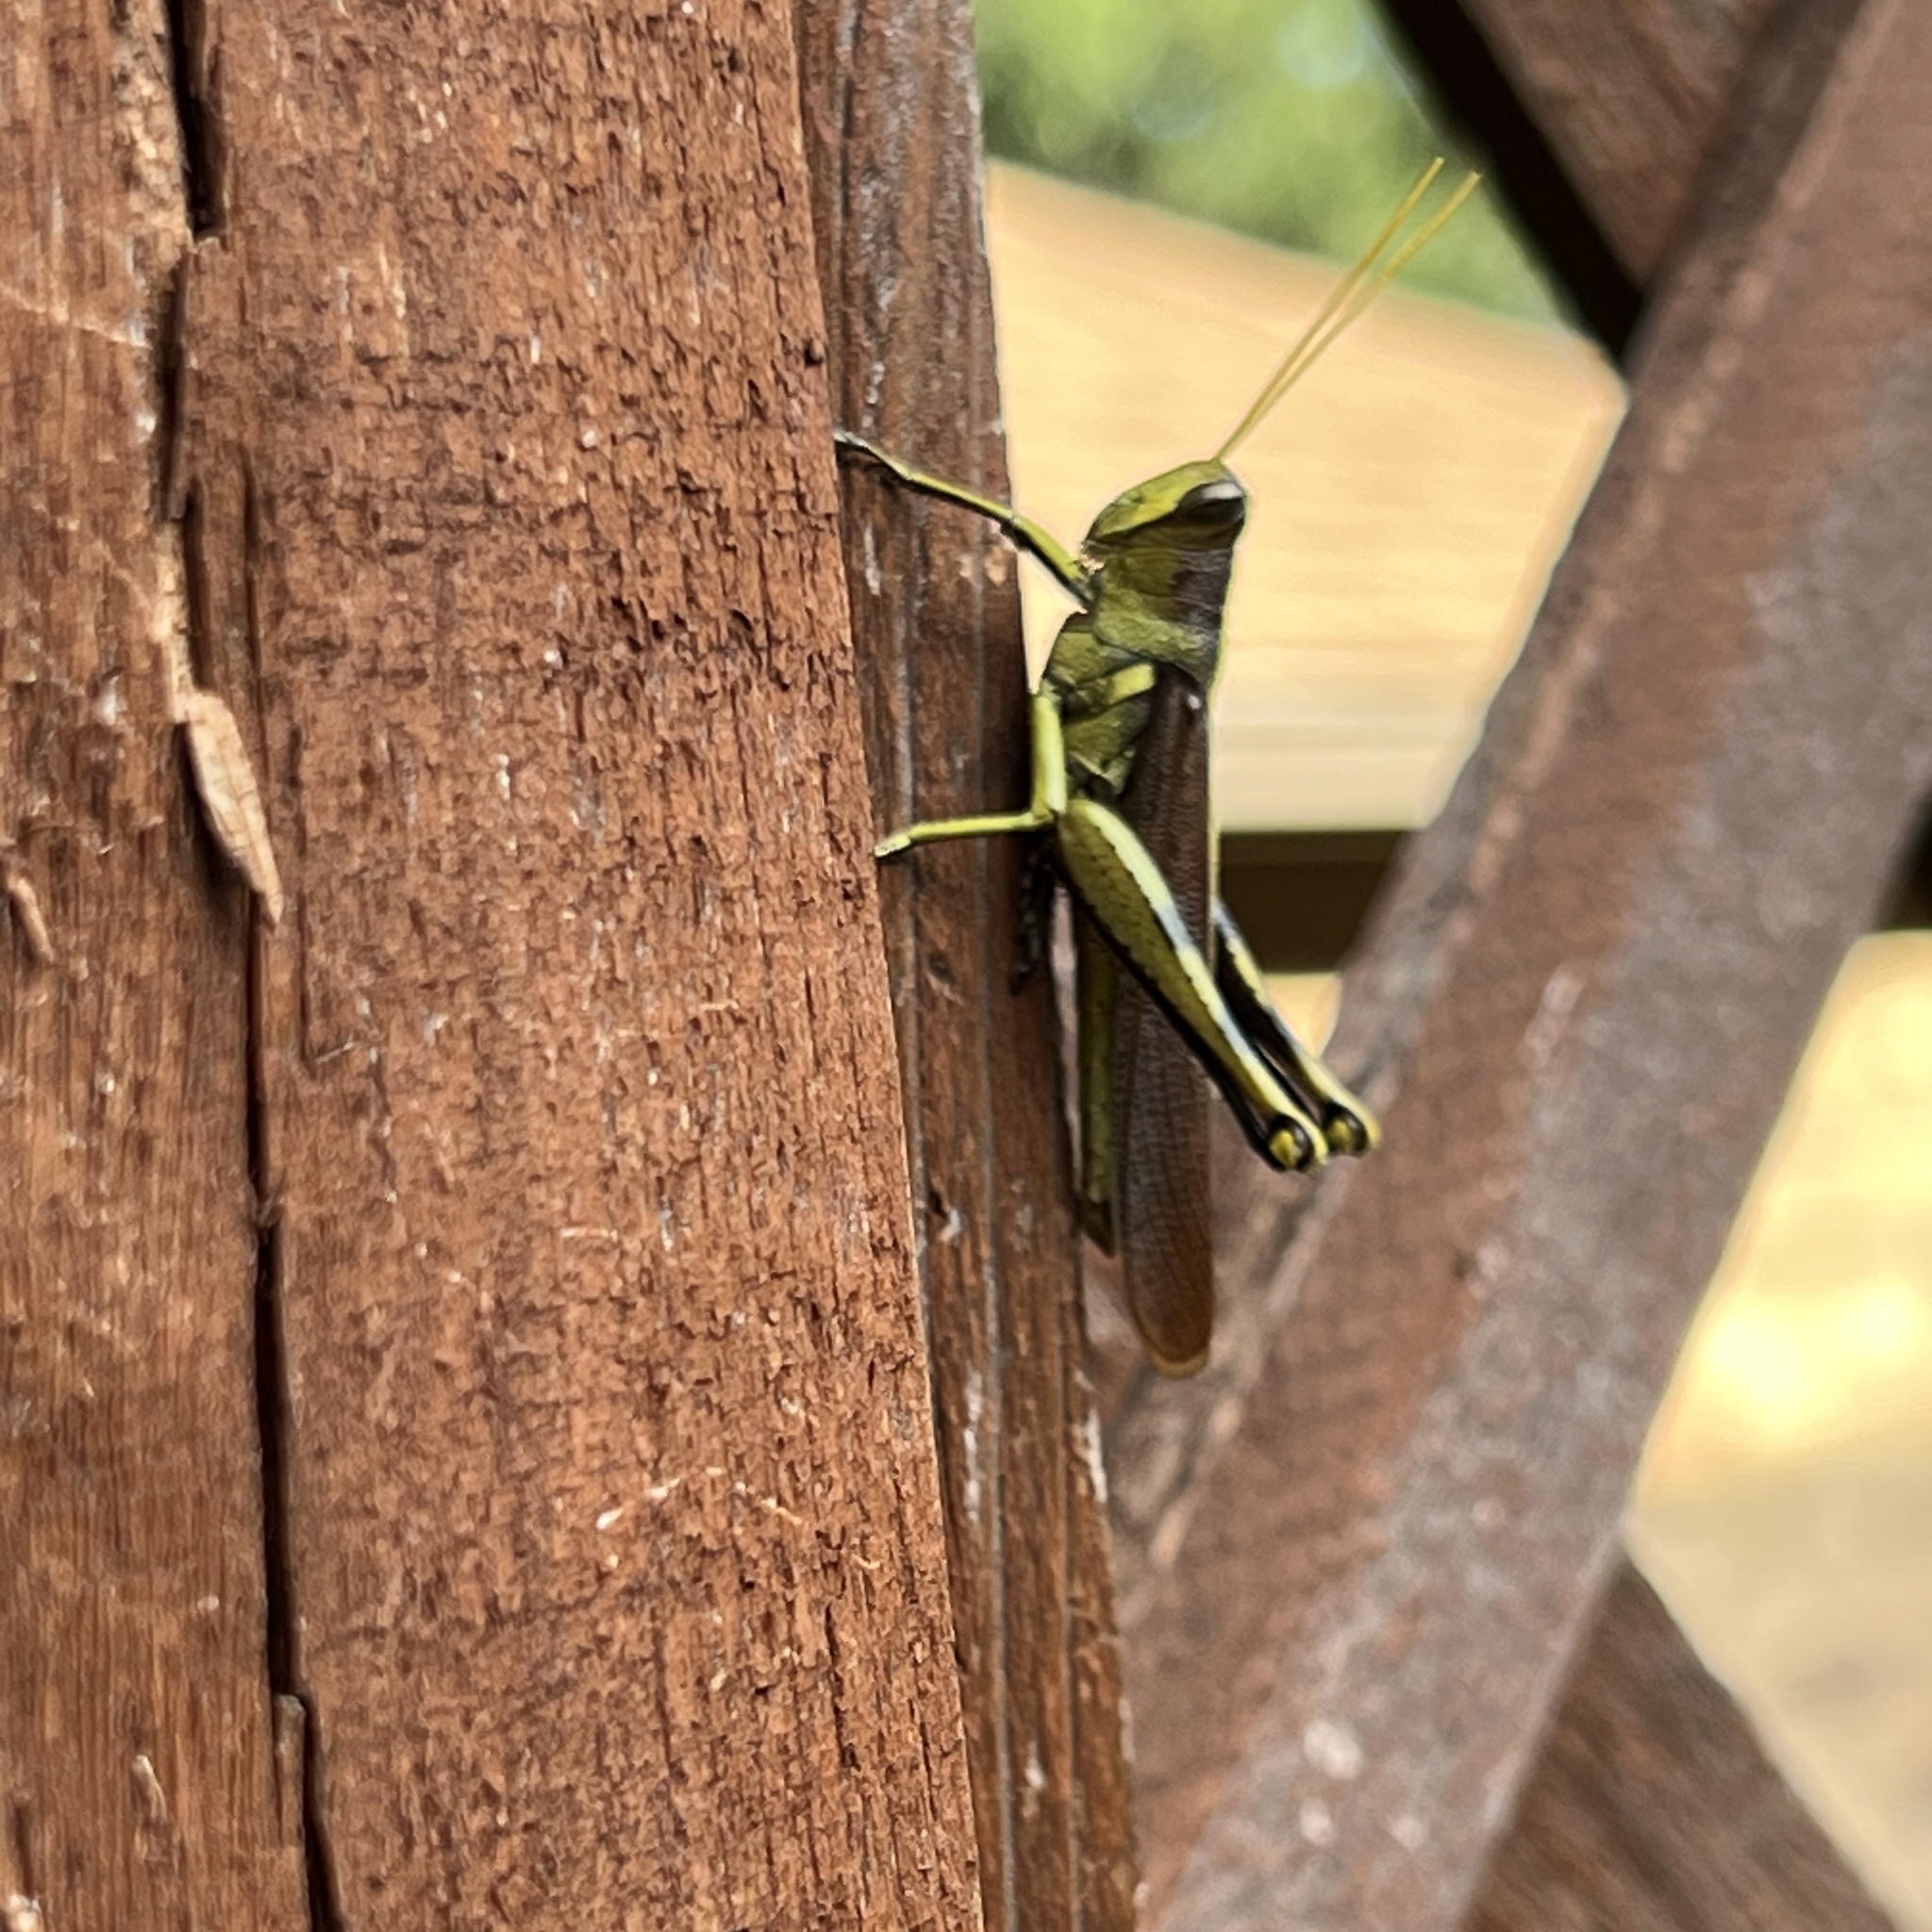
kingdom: Animalia
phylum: Arthropoda
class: Insecta
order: Orthoptera
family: Acrididae
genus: Schistocerca
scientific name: Schistocerca obscura
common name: Obscure bird grasshopper
